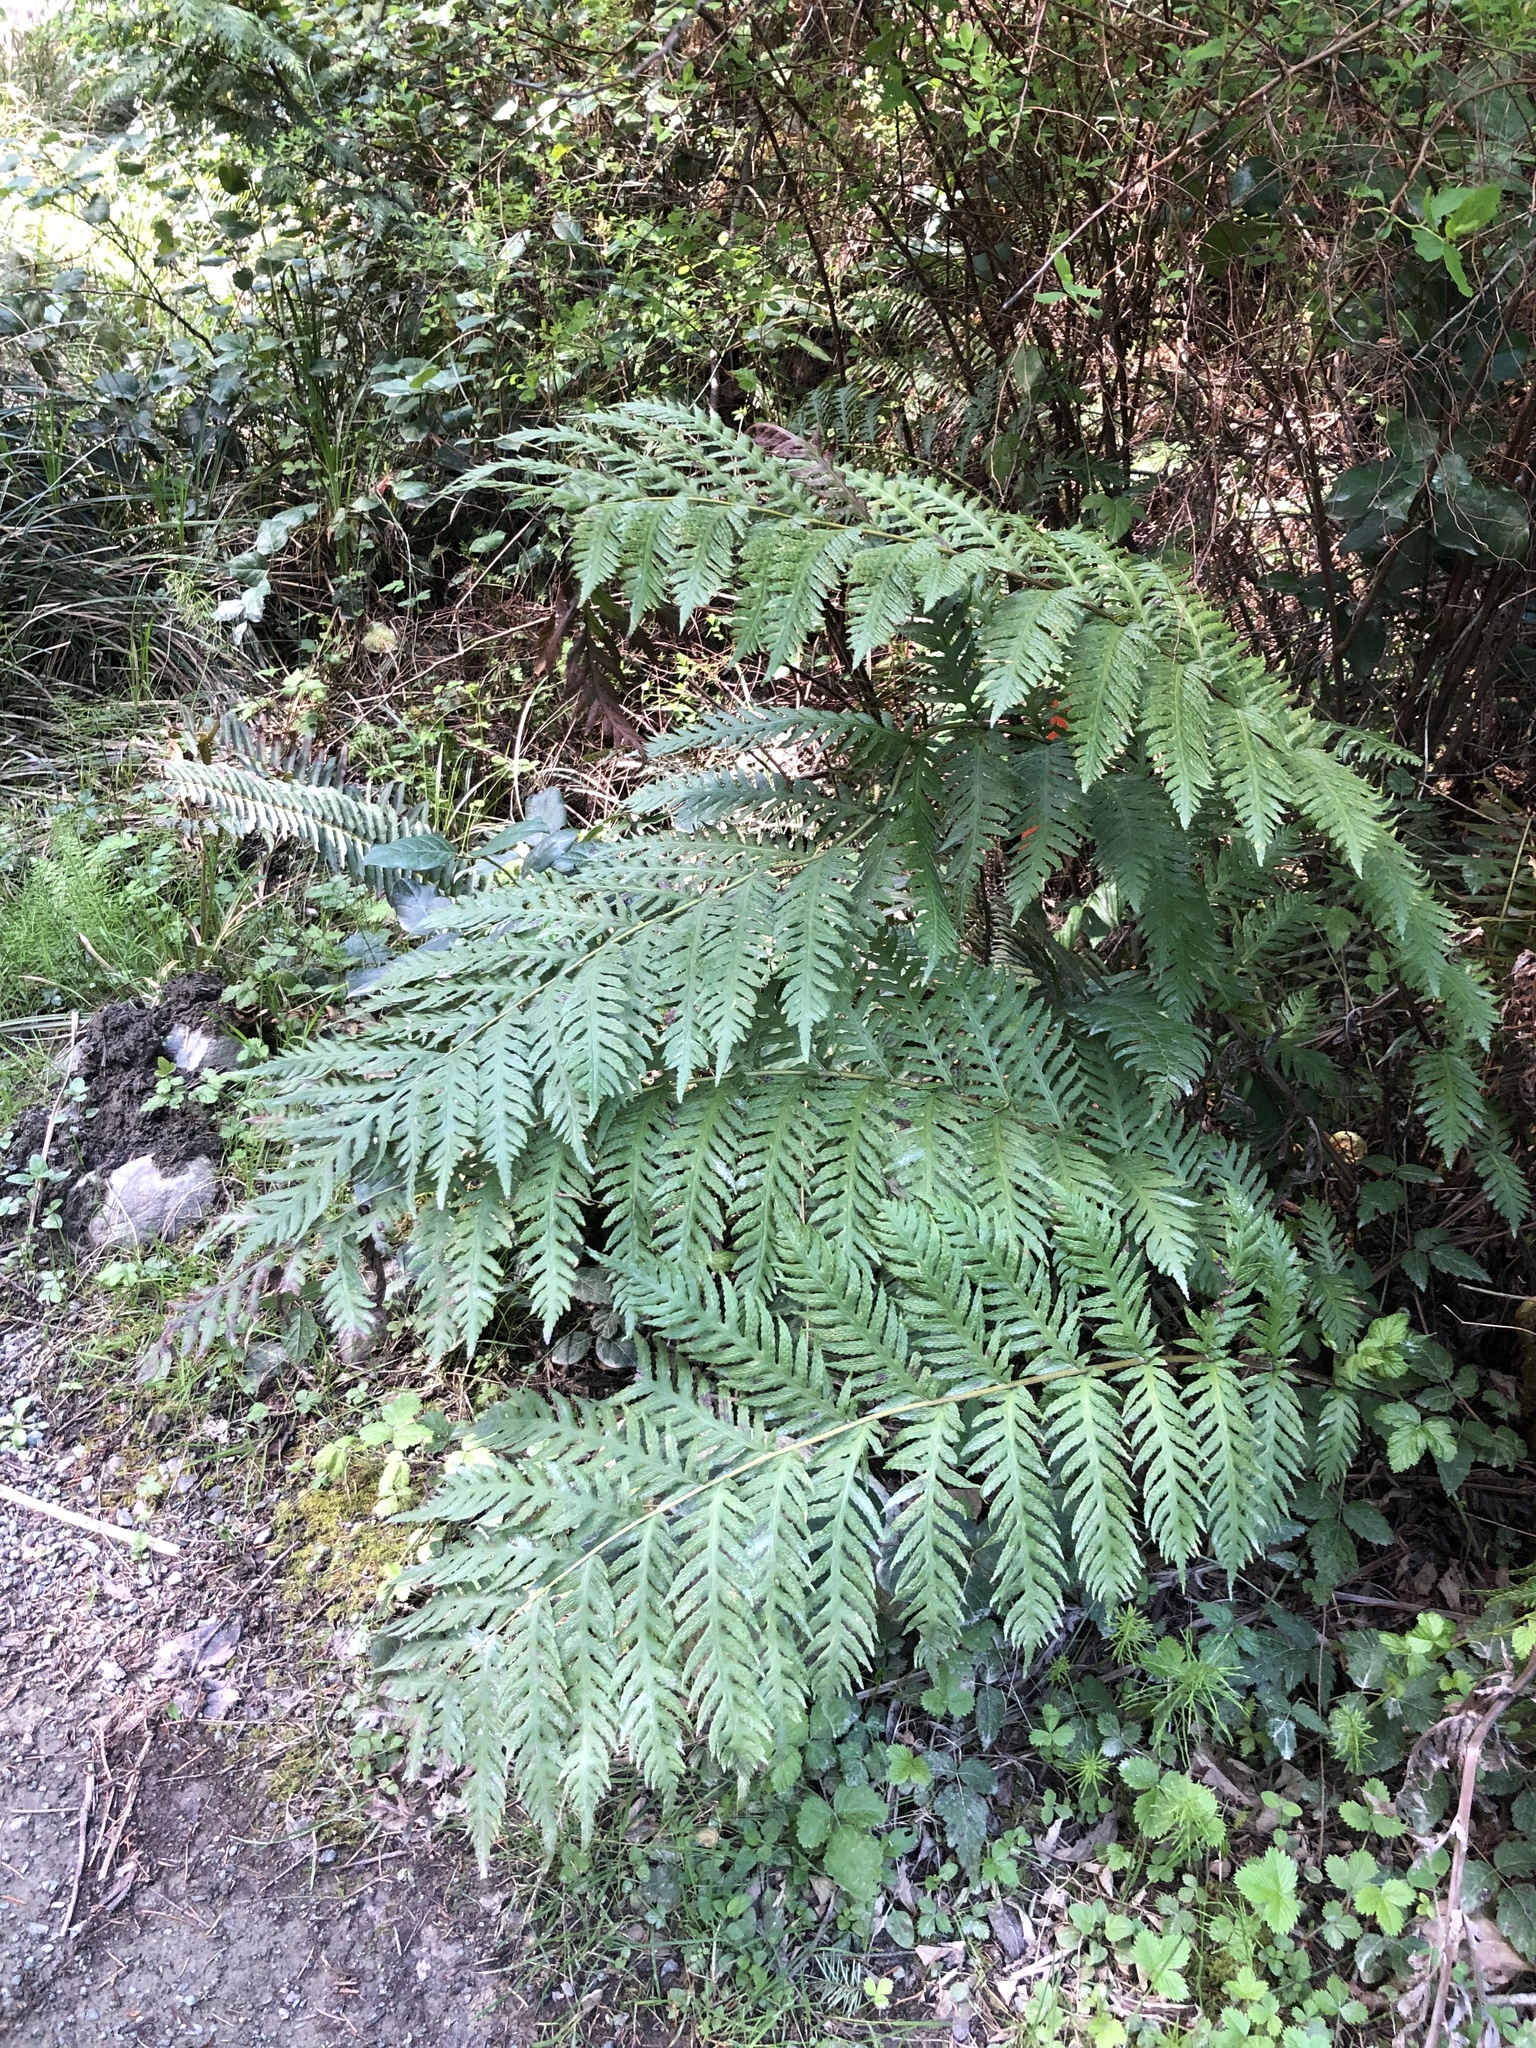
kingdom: Plantae
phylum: Tracheophyta
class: Polypodiopsida
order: Polypodiales
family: Blechnaceae
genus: Woodwardia
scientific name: Woodwardia fimbriata
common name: Giant chain fern
